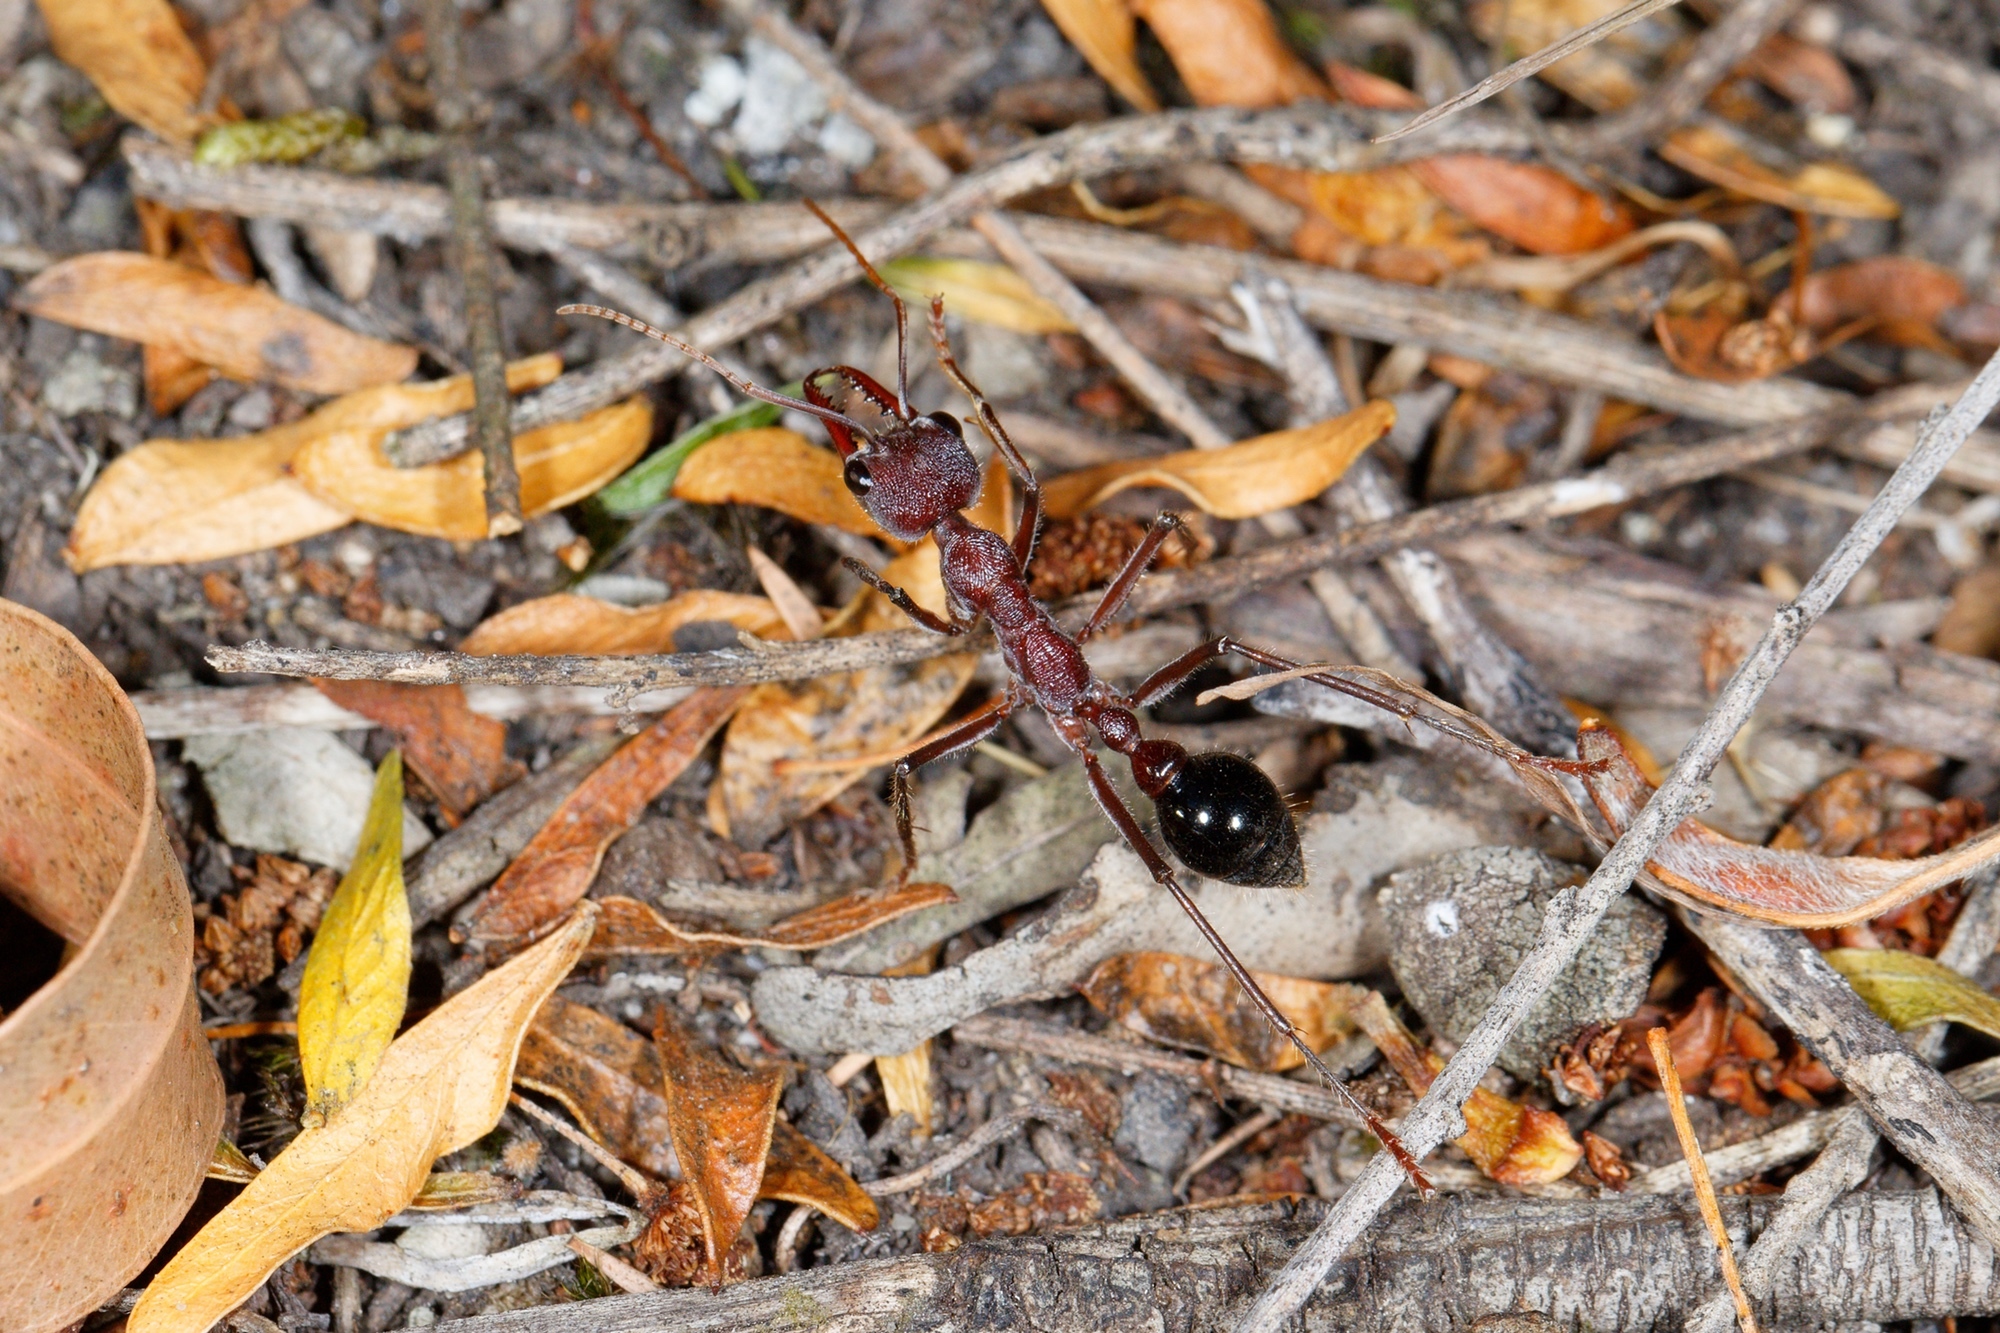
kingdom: Animalia
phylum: Arthropoda
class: Insecta
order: Hymenoptera
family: Formicidae
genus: Myrmecia
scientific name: Myrmecia simillima
